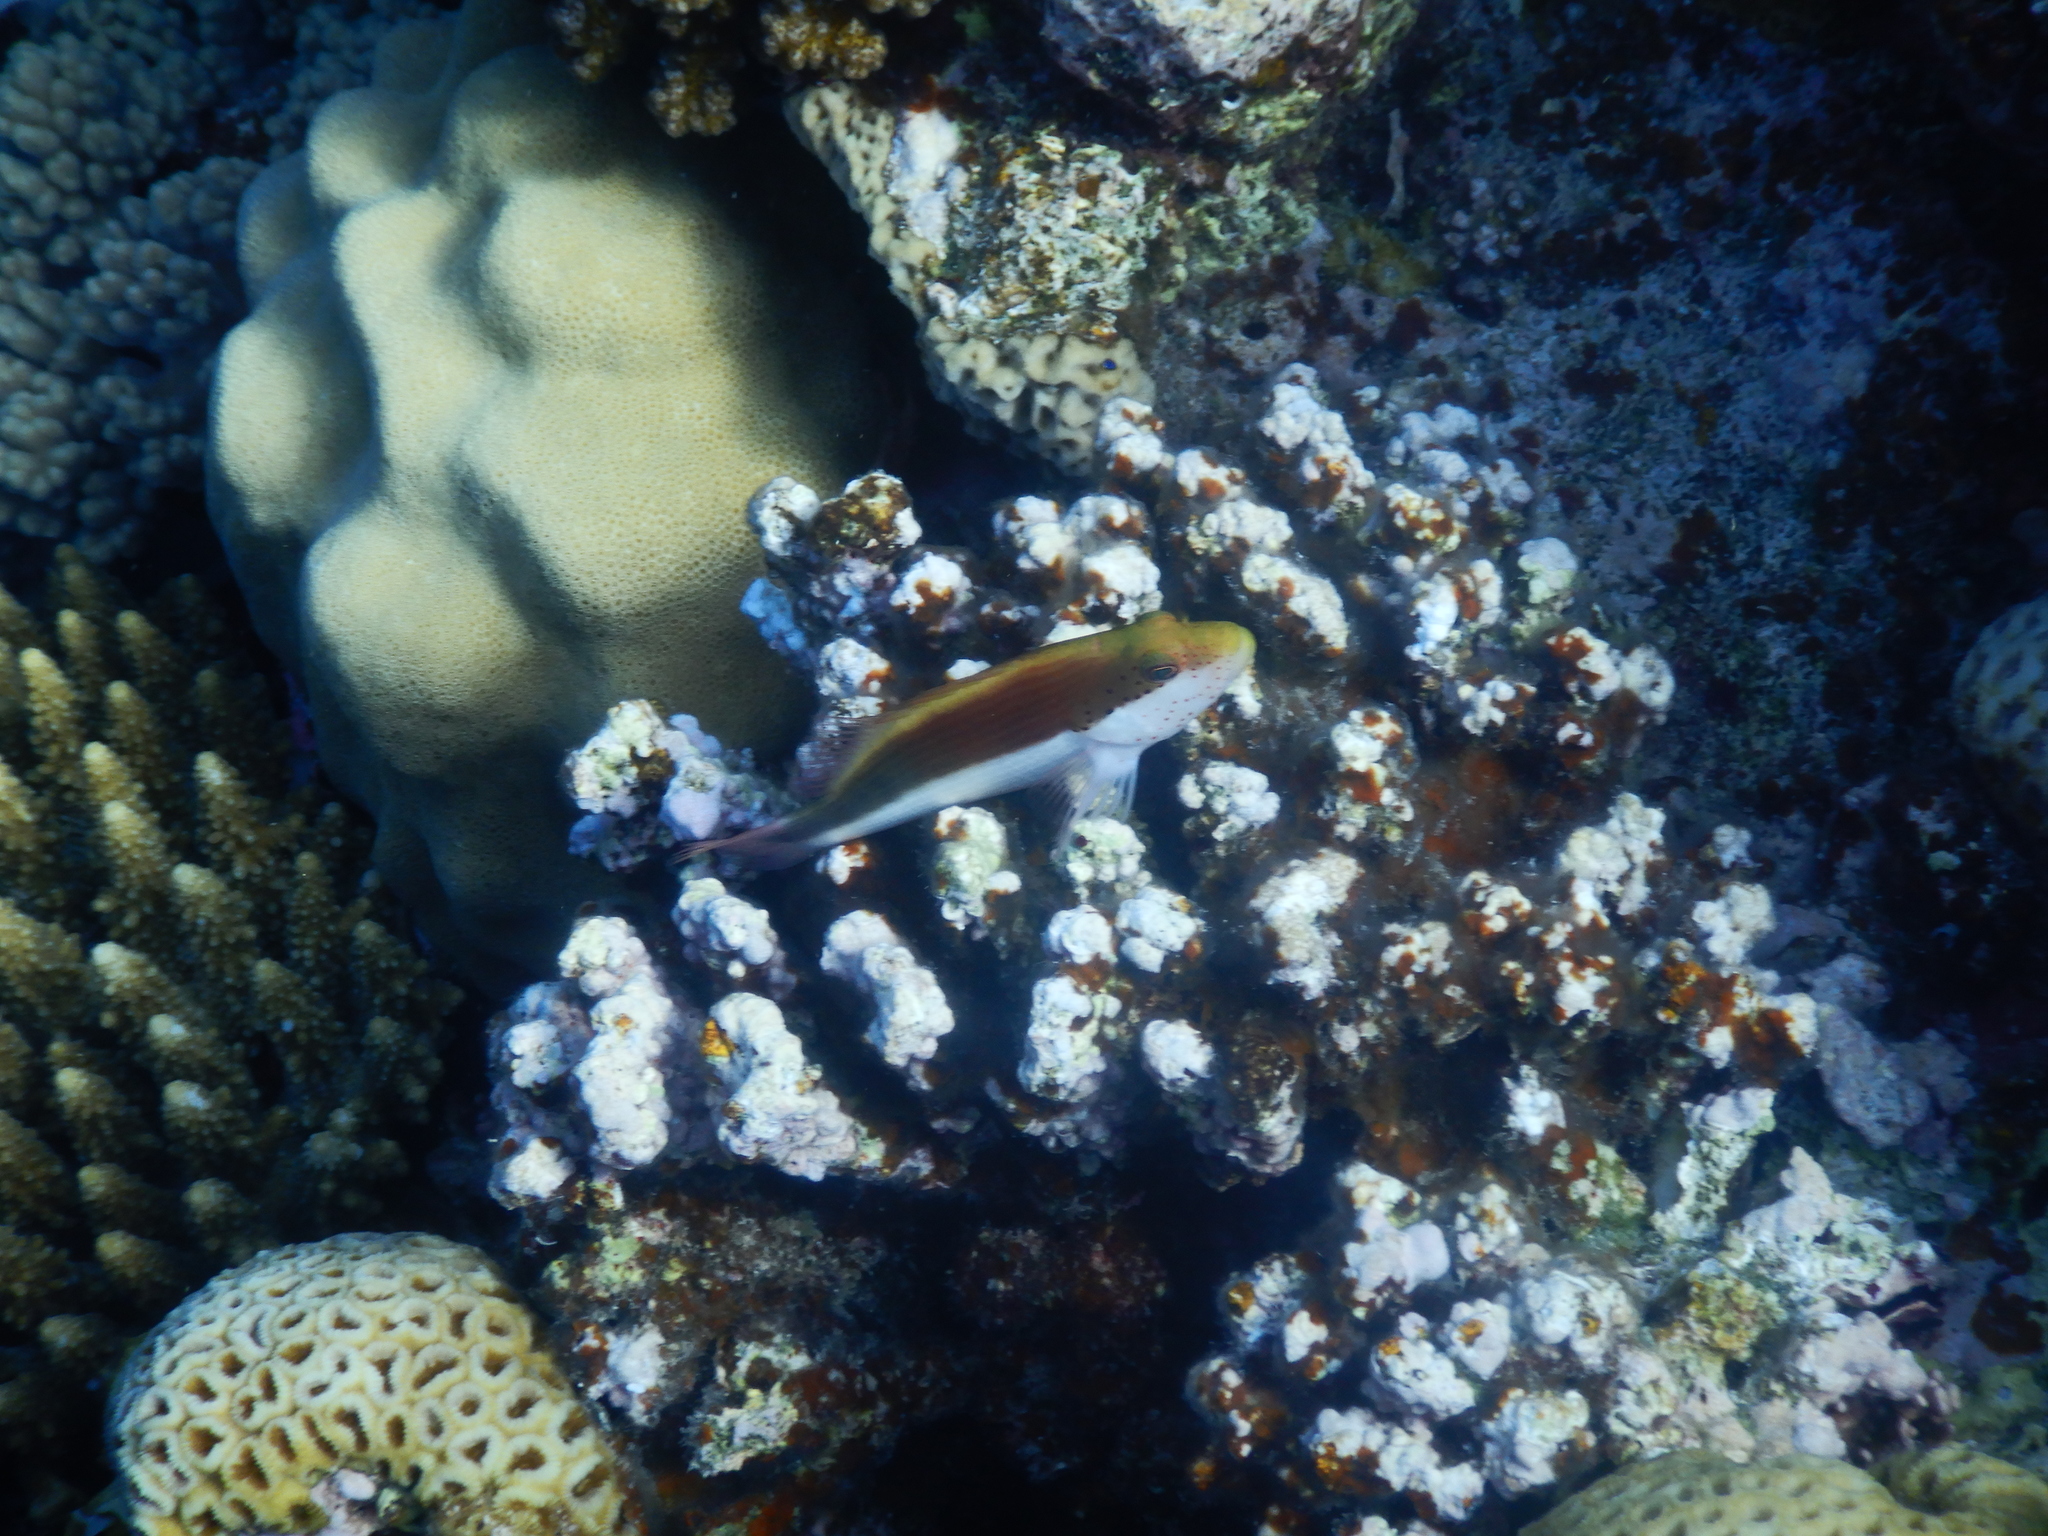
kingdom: Animalia
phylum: Chordata
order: Perciformes
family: Cirrhitidae
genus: Paracirrhites
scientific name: Paracirrhites forsteri
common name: Freckled hawkfish
